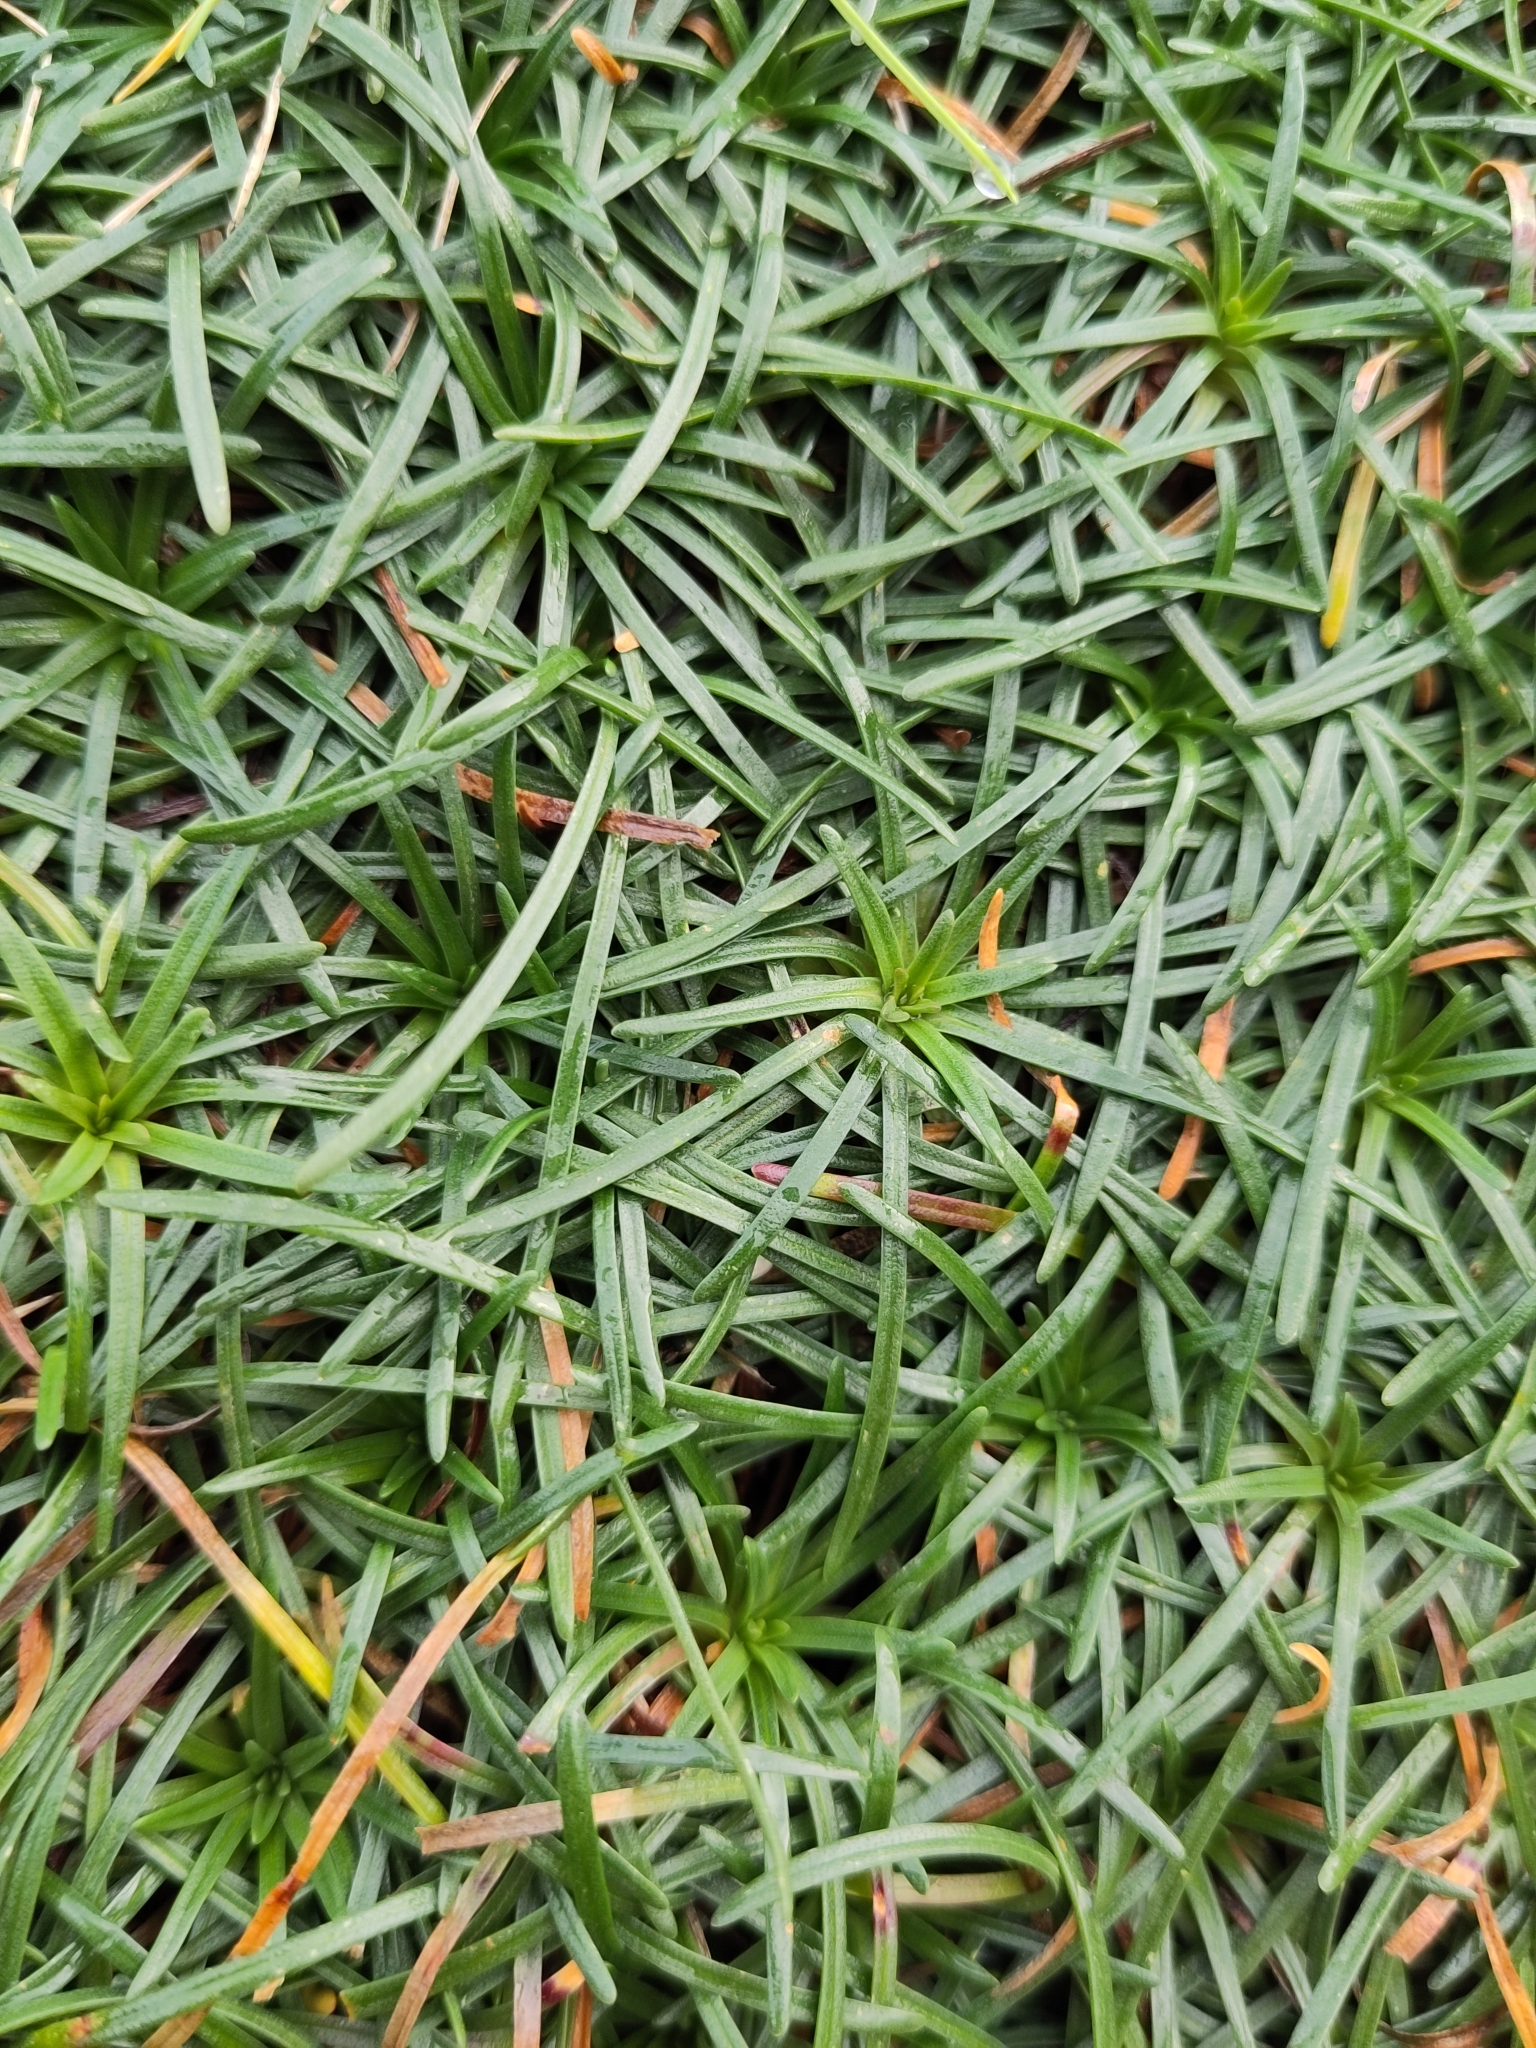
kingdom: Plantae
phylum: Tracheophyta
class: Magnoliopsida
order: Caryophyllales
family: Plumbaginaceae
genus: Armeria
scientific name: Armeria maritima
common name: Thrift
